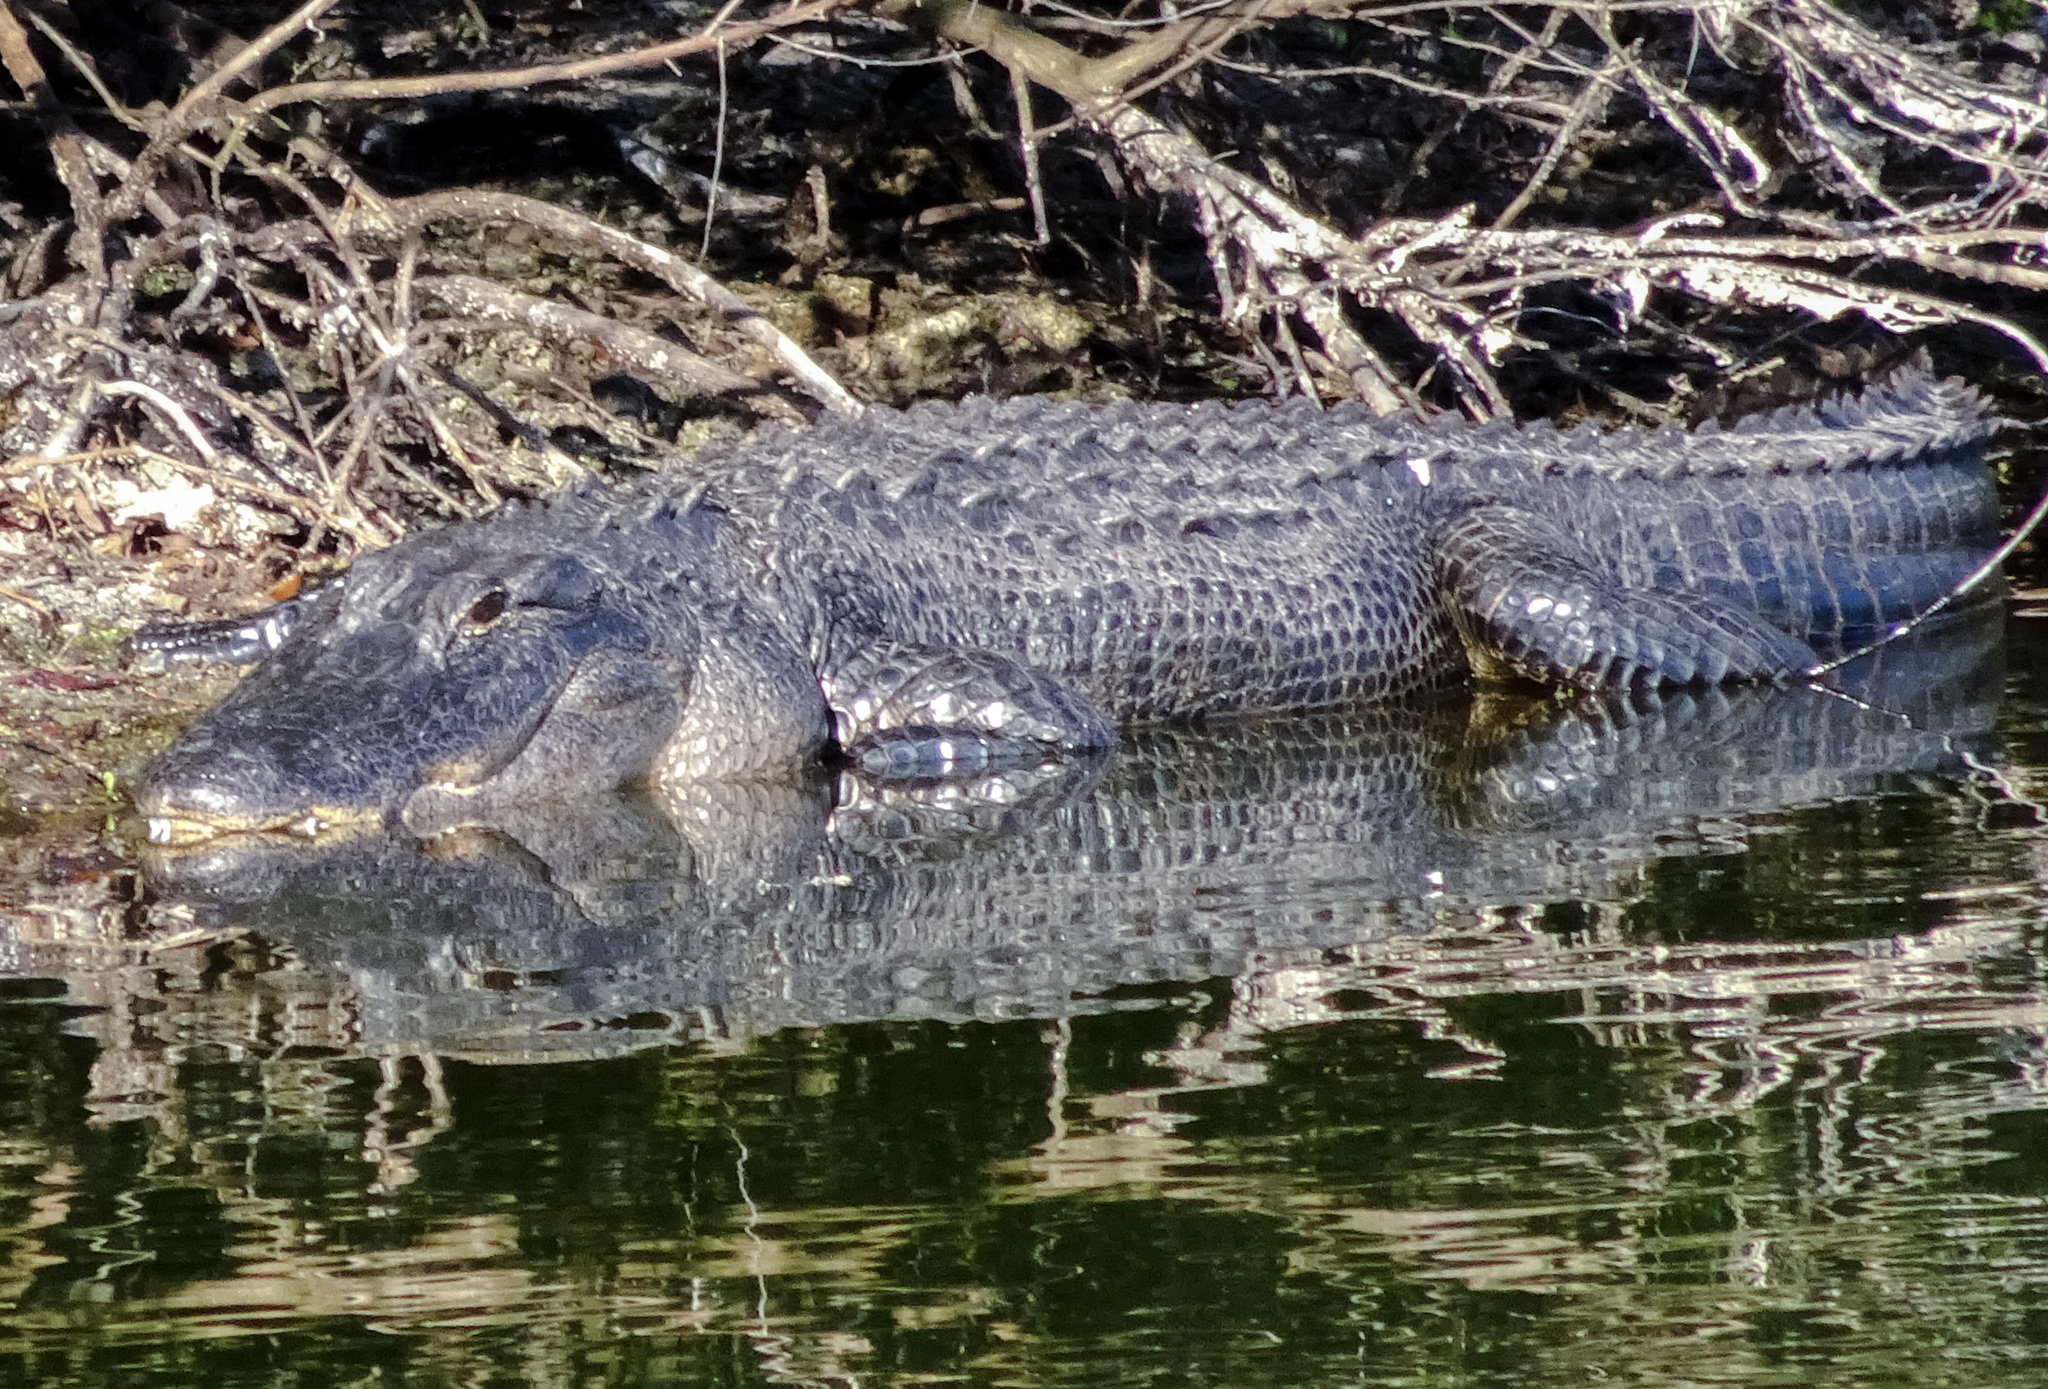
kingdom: Animalia
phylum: Chordata
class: Crocodylia
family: Alligatoridae
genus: Alligator
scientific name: Alligator mississippiensis
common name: American alligator
